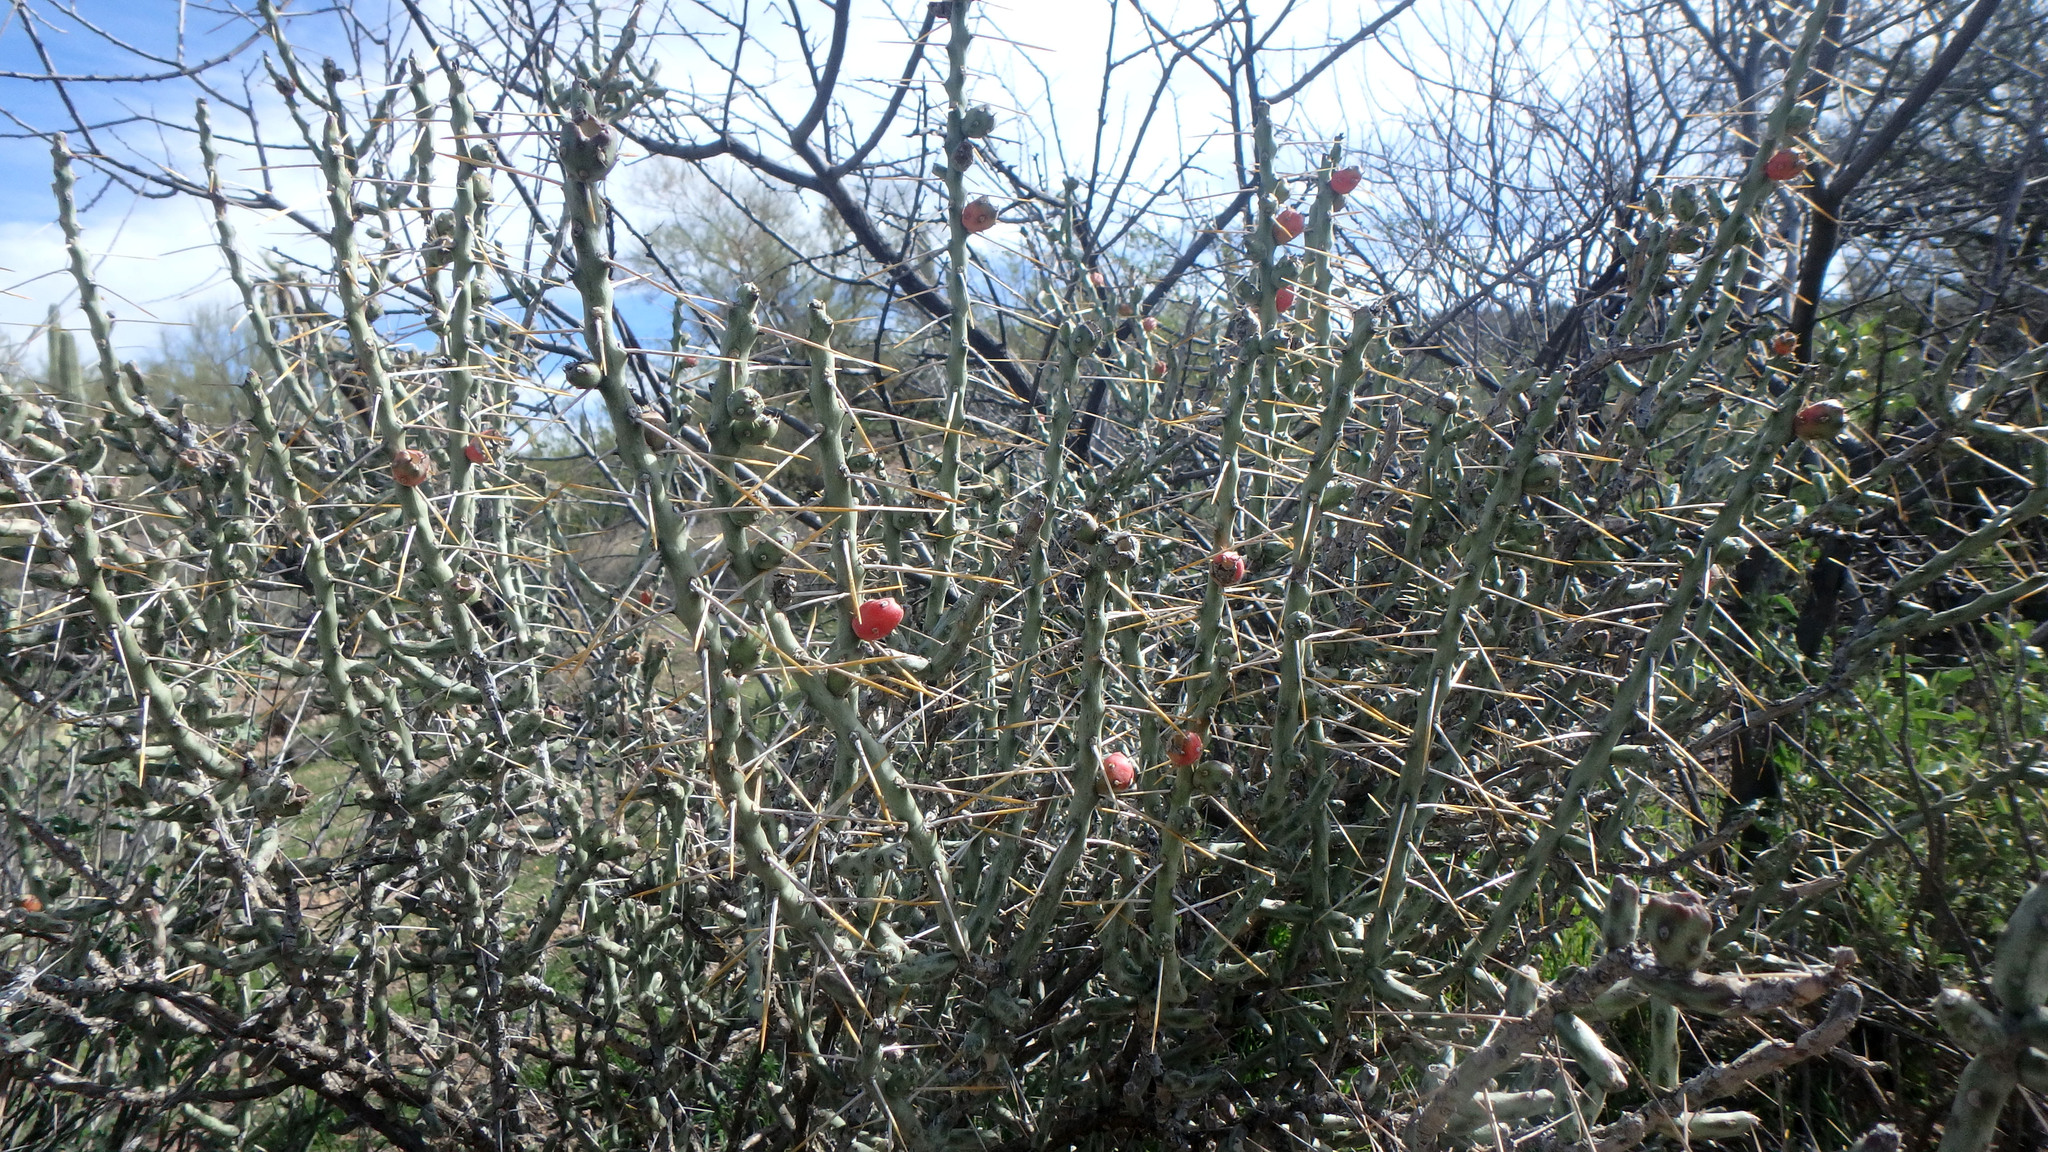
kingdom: Plantae
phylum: Tracheophyta
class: Magnoliopsida
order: Caryophyllales
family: Cactaceae
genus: Cylindropuntia
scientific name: Cylindropuntia leptocaulis
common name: Christmas cactus
